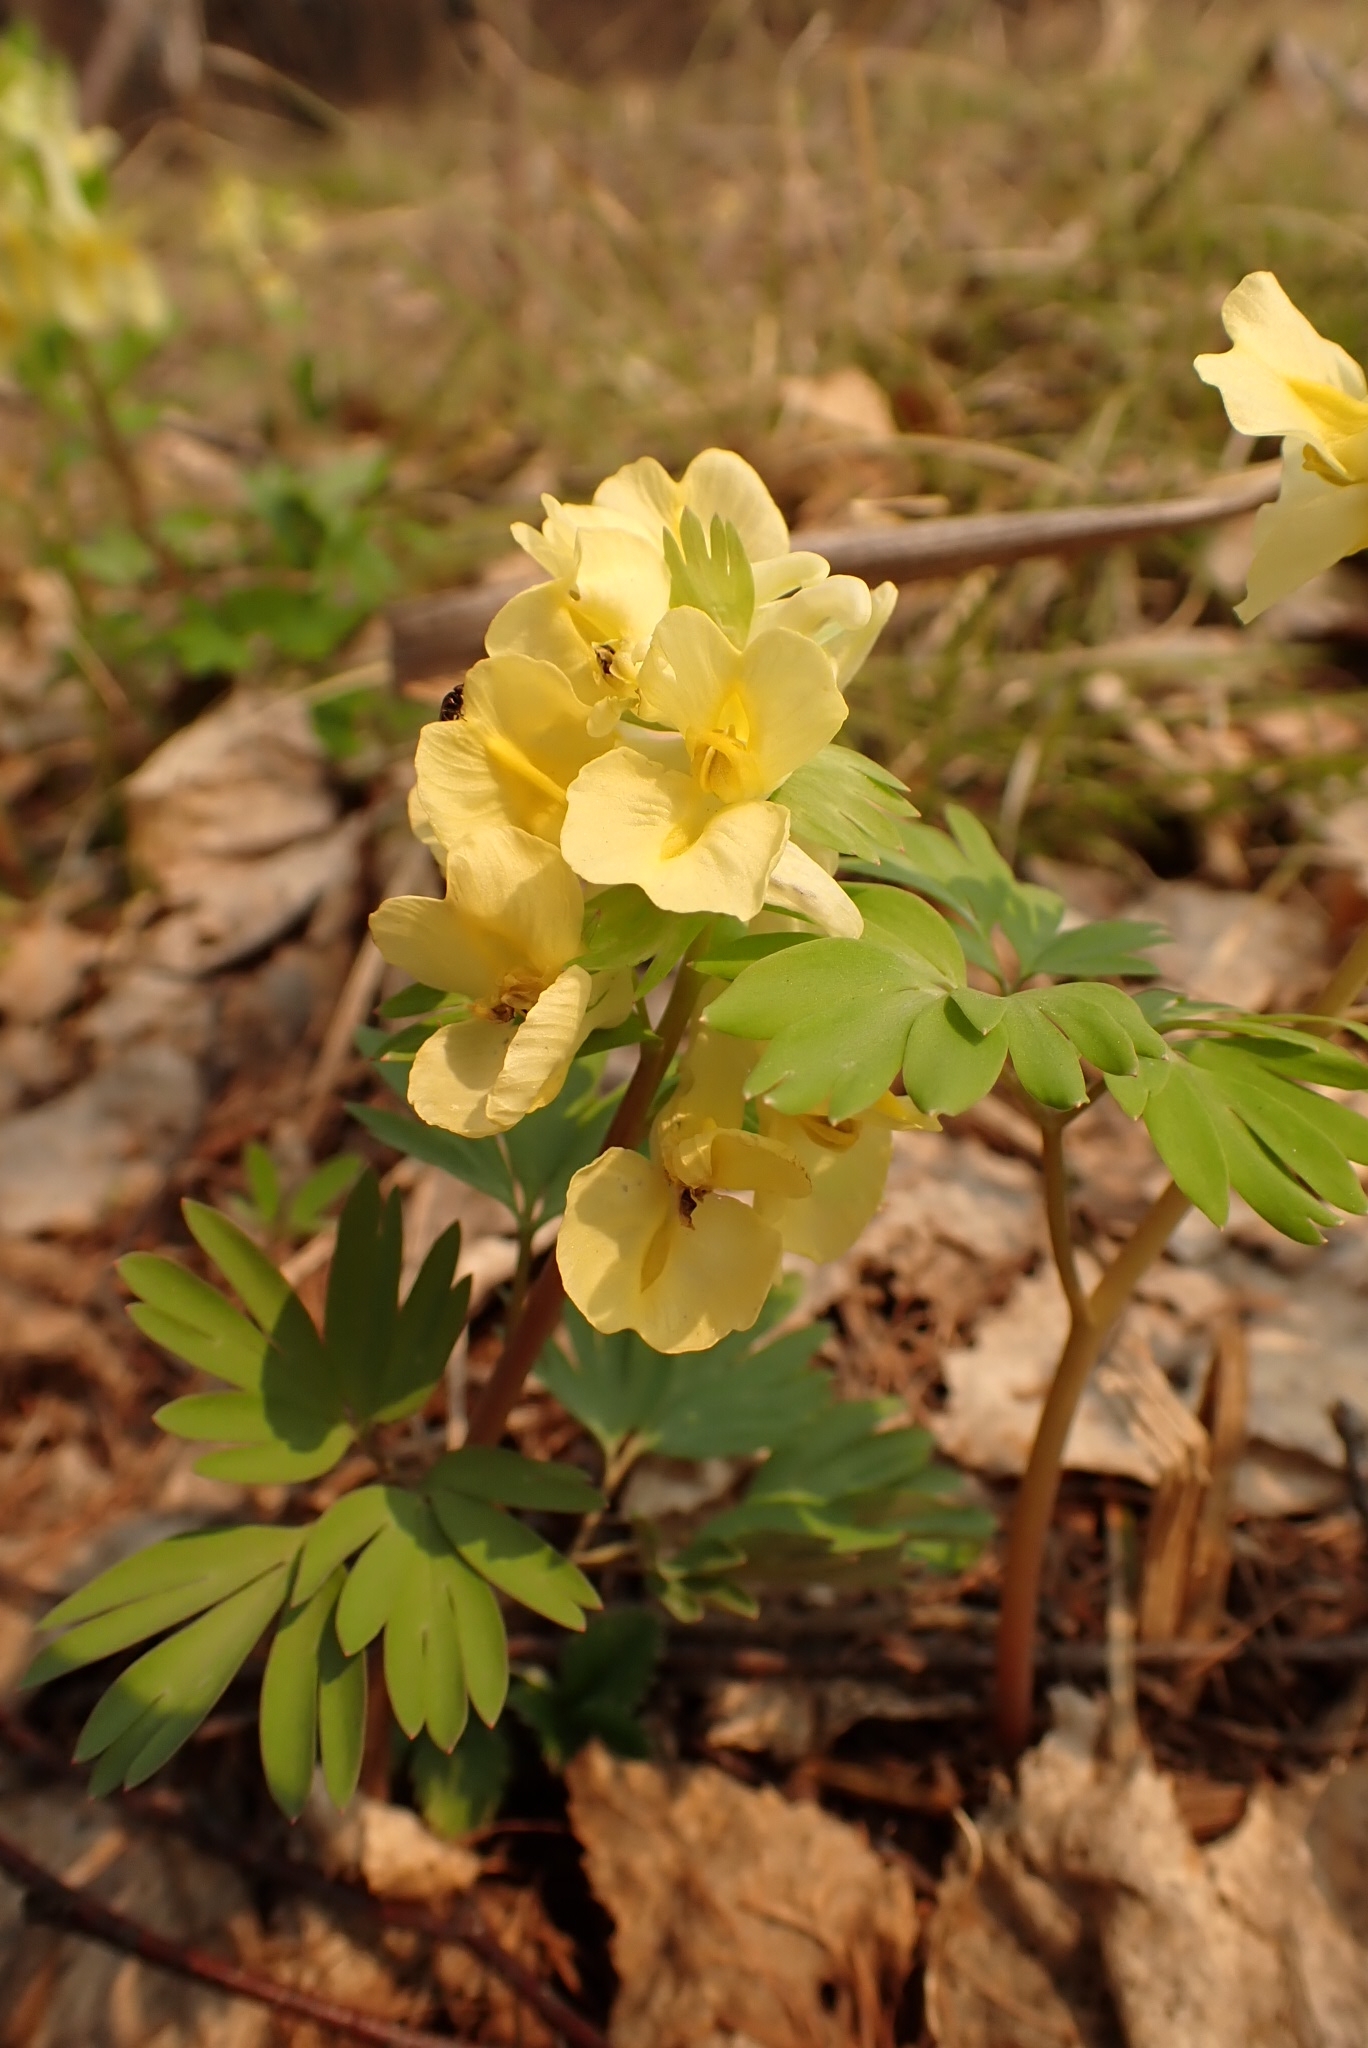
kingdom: Plantae
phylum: Tracheophyta
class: Magnoliopsida
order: Ranunculales
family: Papaveraceae
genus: Corydalis
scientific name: Corydalis bracteata
